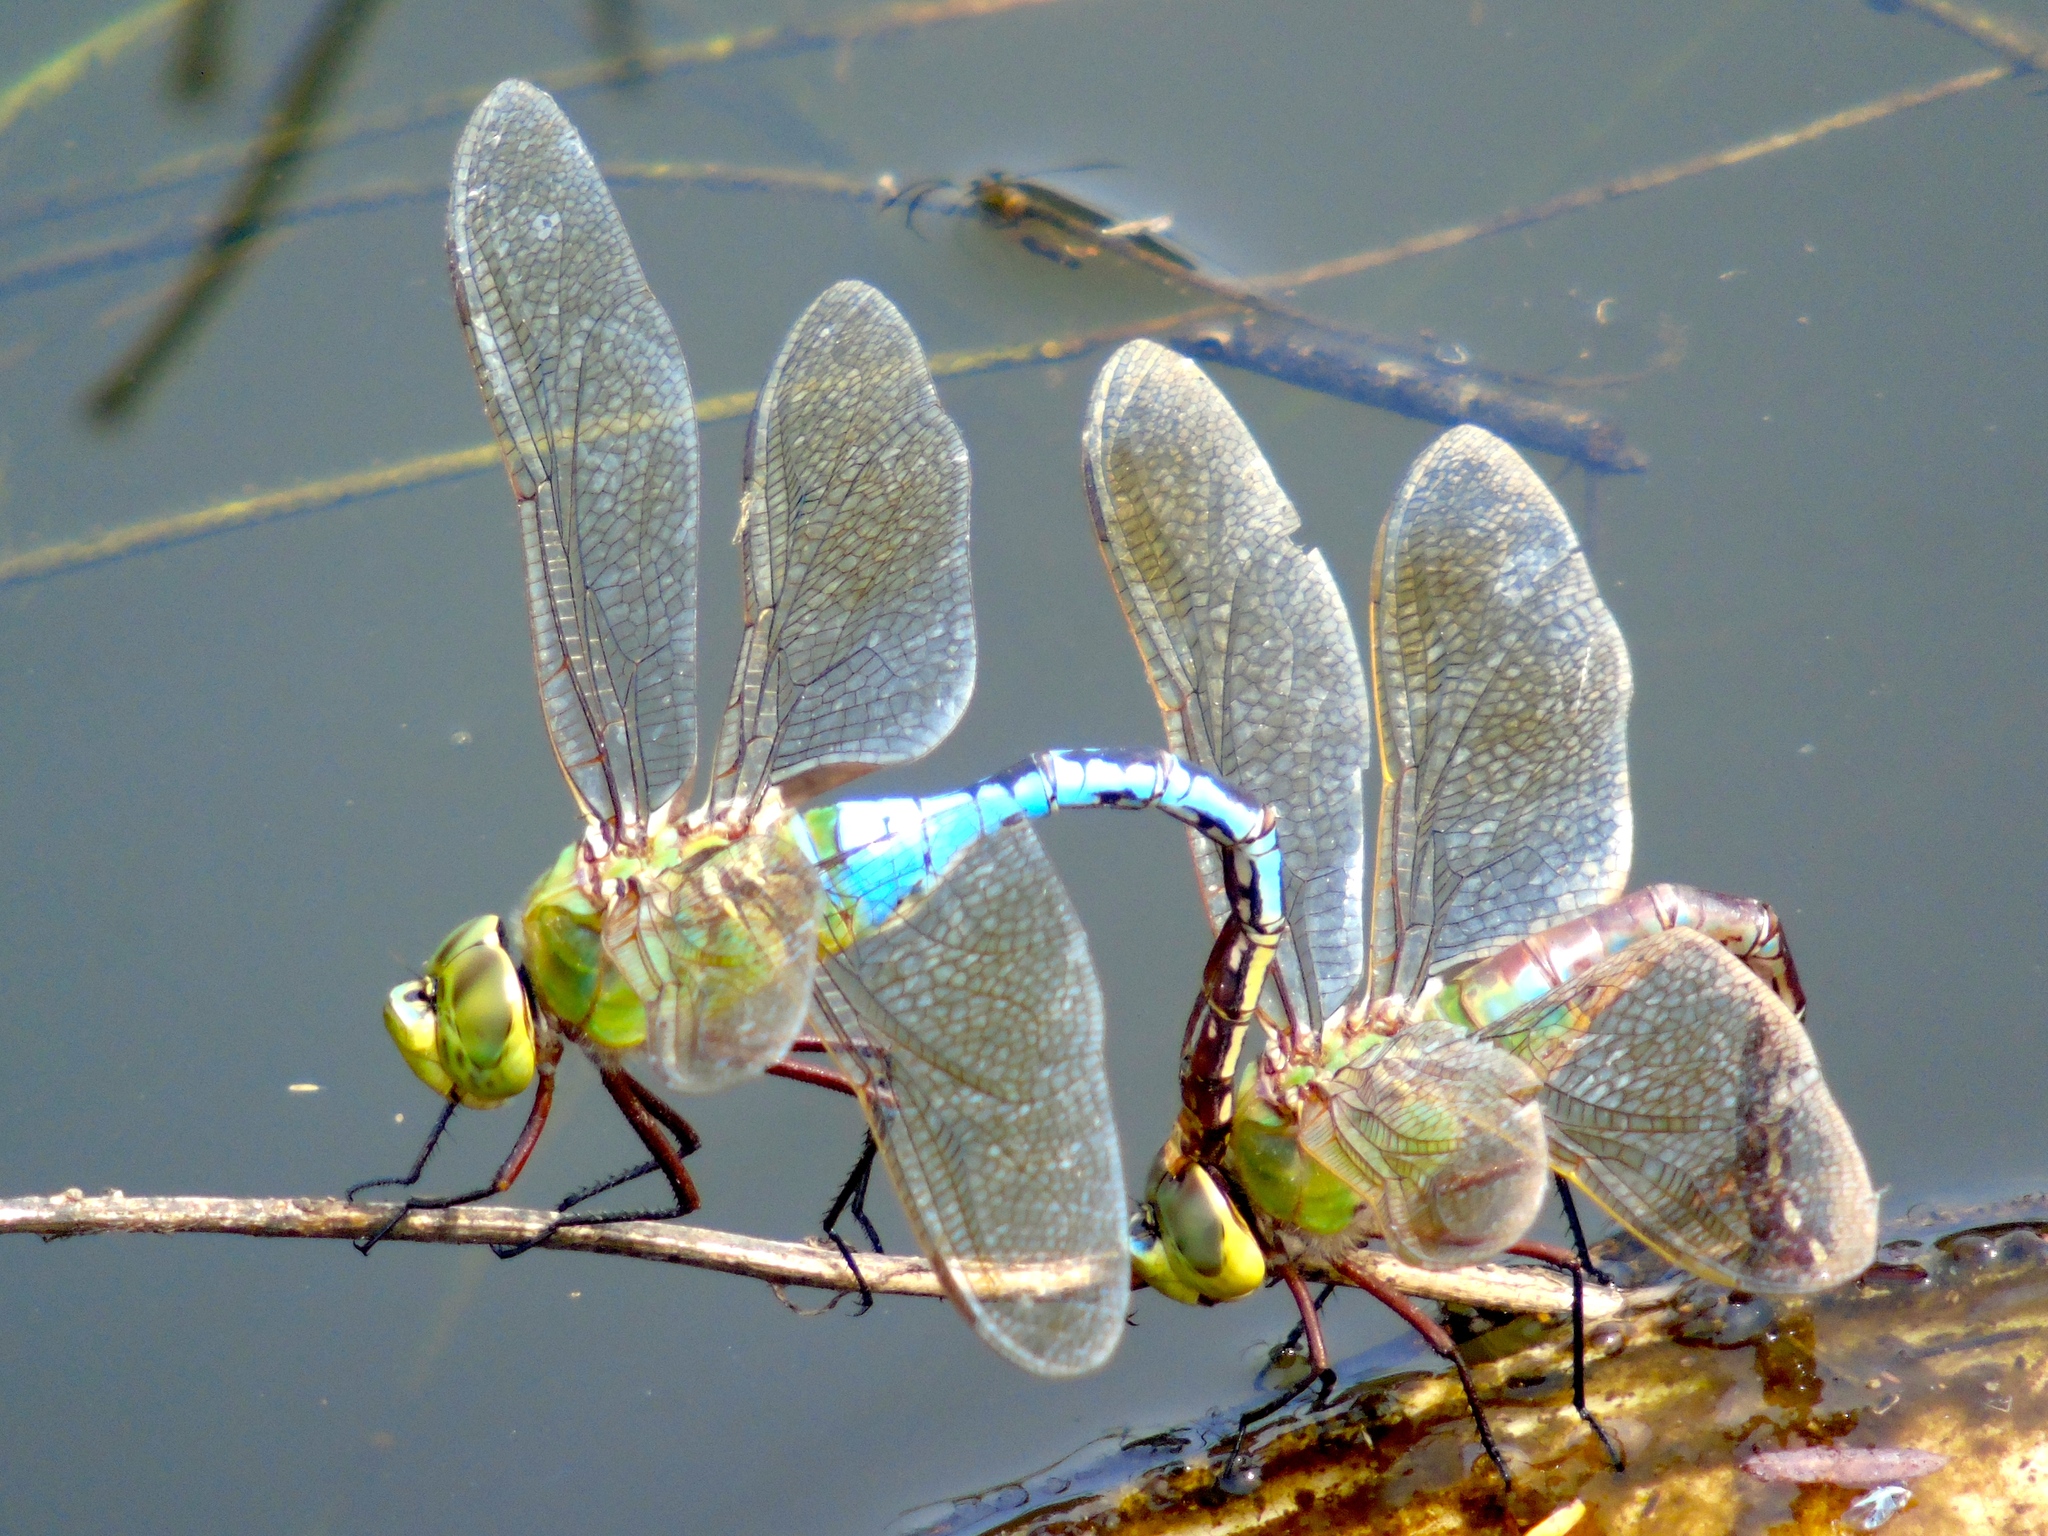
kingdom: Animalia
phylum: Arthropoda
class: Insecta
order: Odonata
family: Aeshnidae
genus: Anax
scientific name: Anax junius
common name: Common green darner
